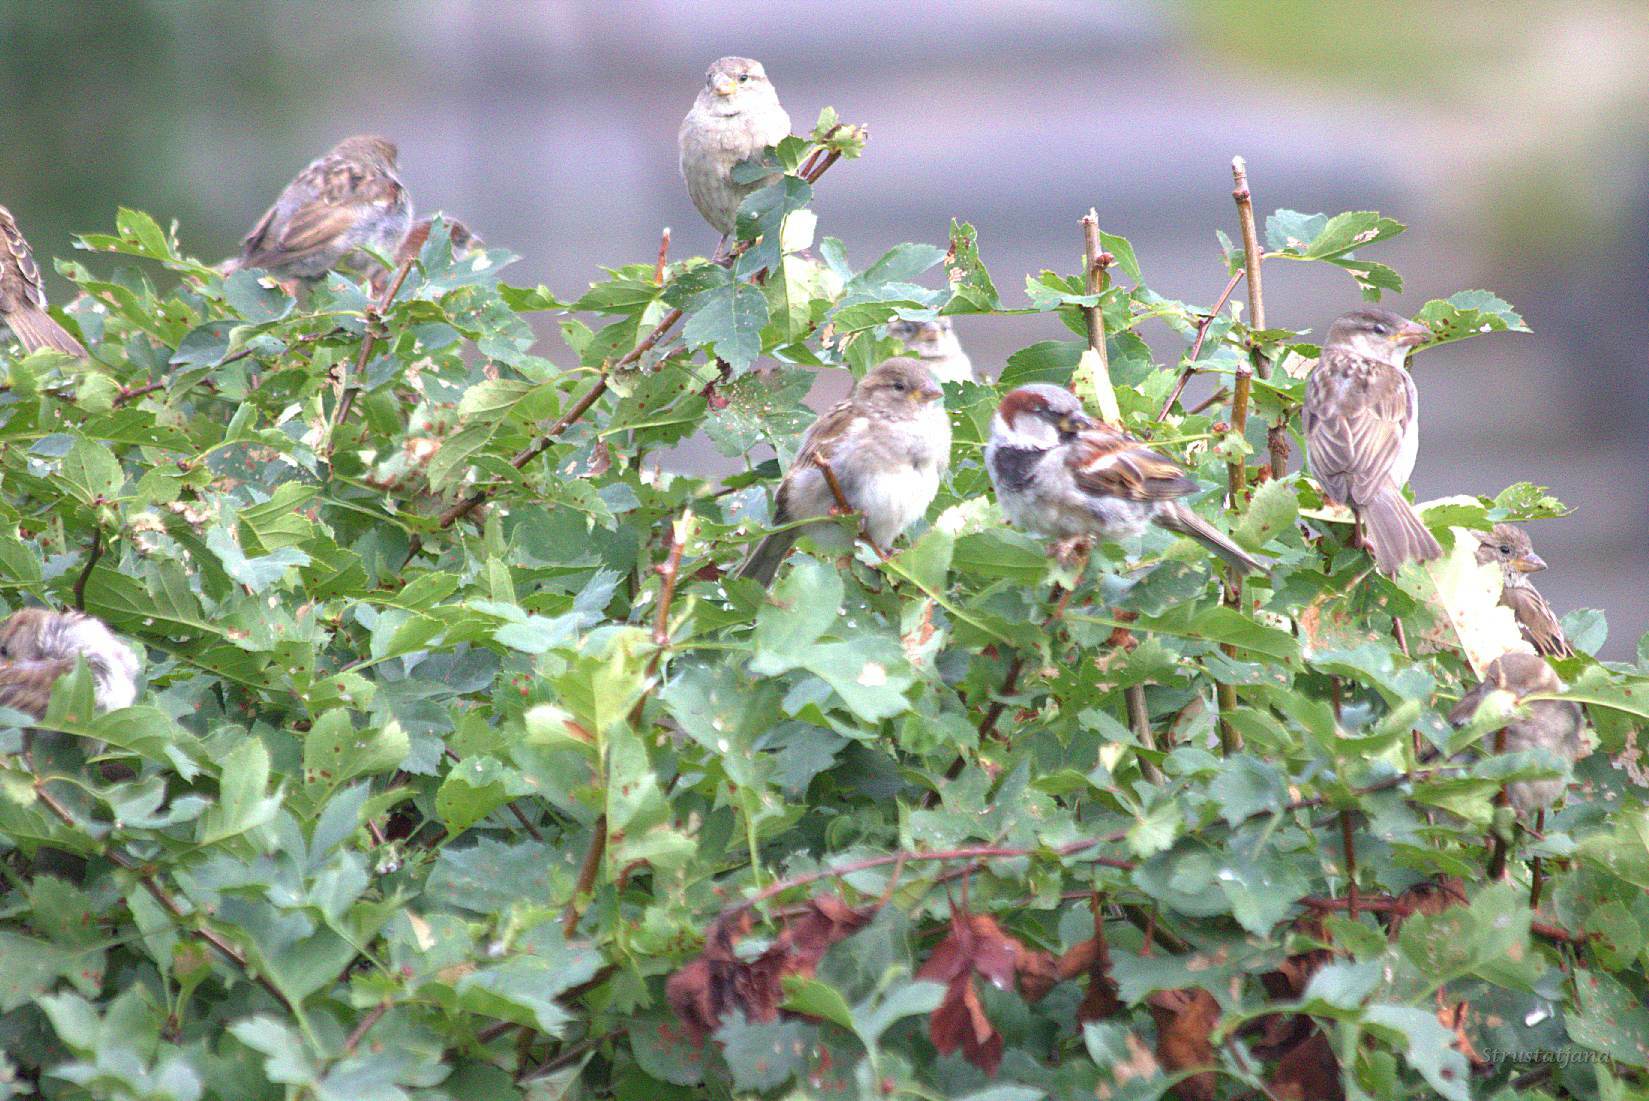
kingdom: Animalia
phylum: Chordata
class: Aves
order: Passeriformes
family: Passeridae
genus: Passer
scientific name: Passer domesticus
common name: House sparrow
